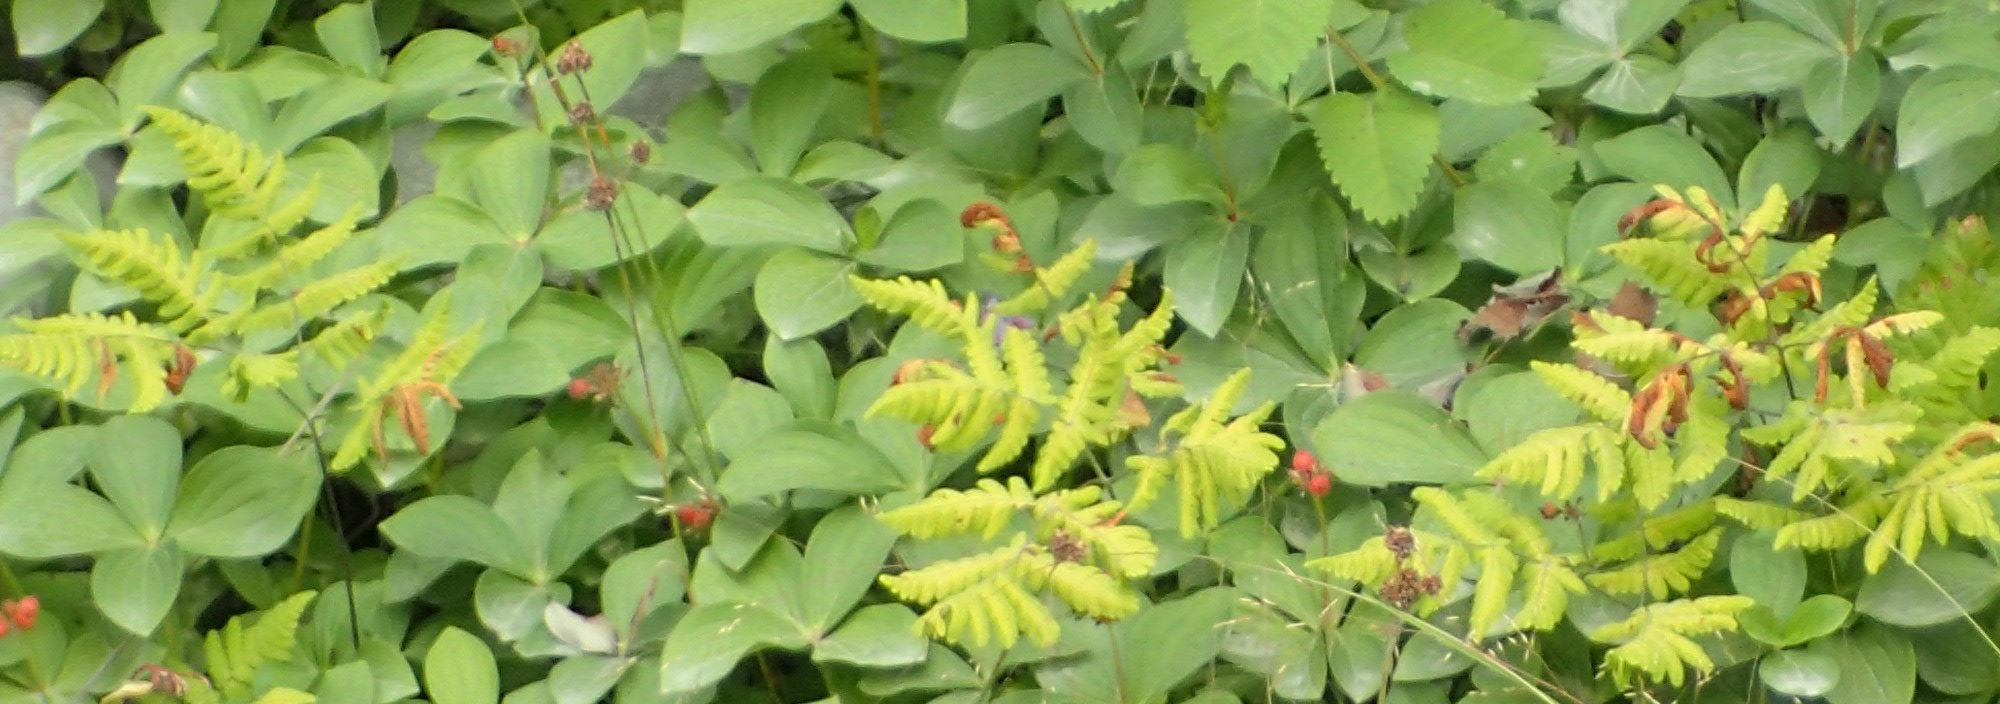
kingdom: Plantae
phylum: Tracheophyta
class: Polypodiopsida
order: Polypodiales
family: Cystopteridaceae
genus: Gymnocarpium
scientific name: Gymnocarpium dryopteris
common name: Oak fern
